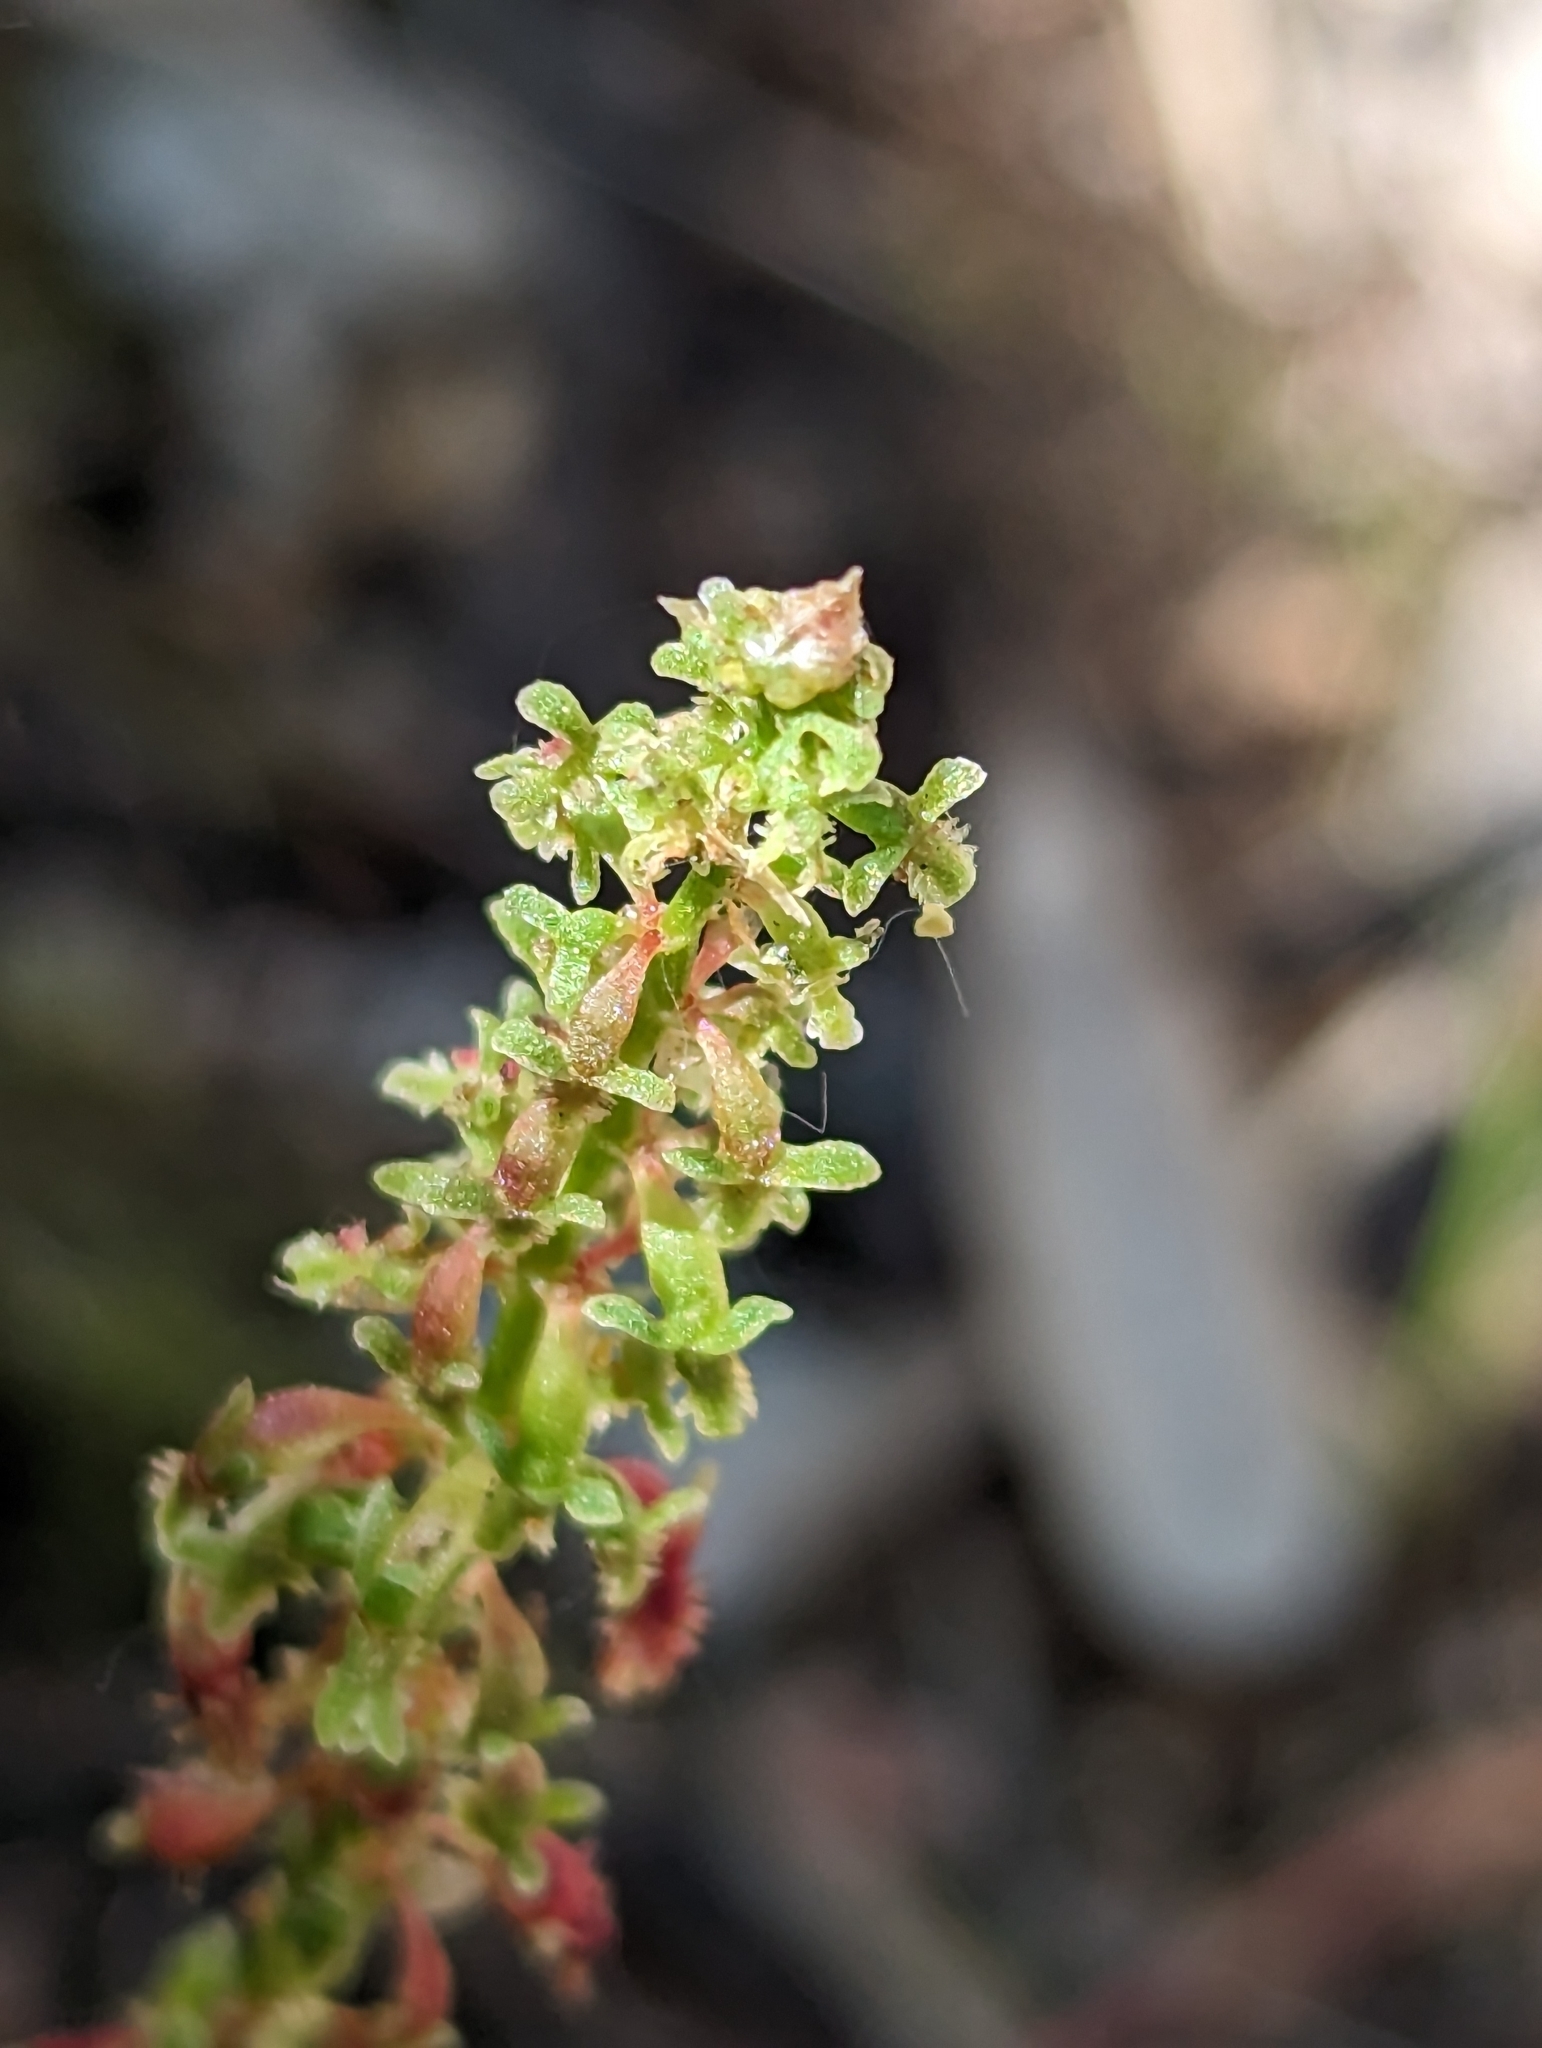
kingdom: Plantae
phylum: Tracheophyta
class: Magnoliopsida
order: Caryophyllales
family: Polygonaceae
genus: Rumex
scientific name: Rumex bucephalophorus
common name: Red dock
